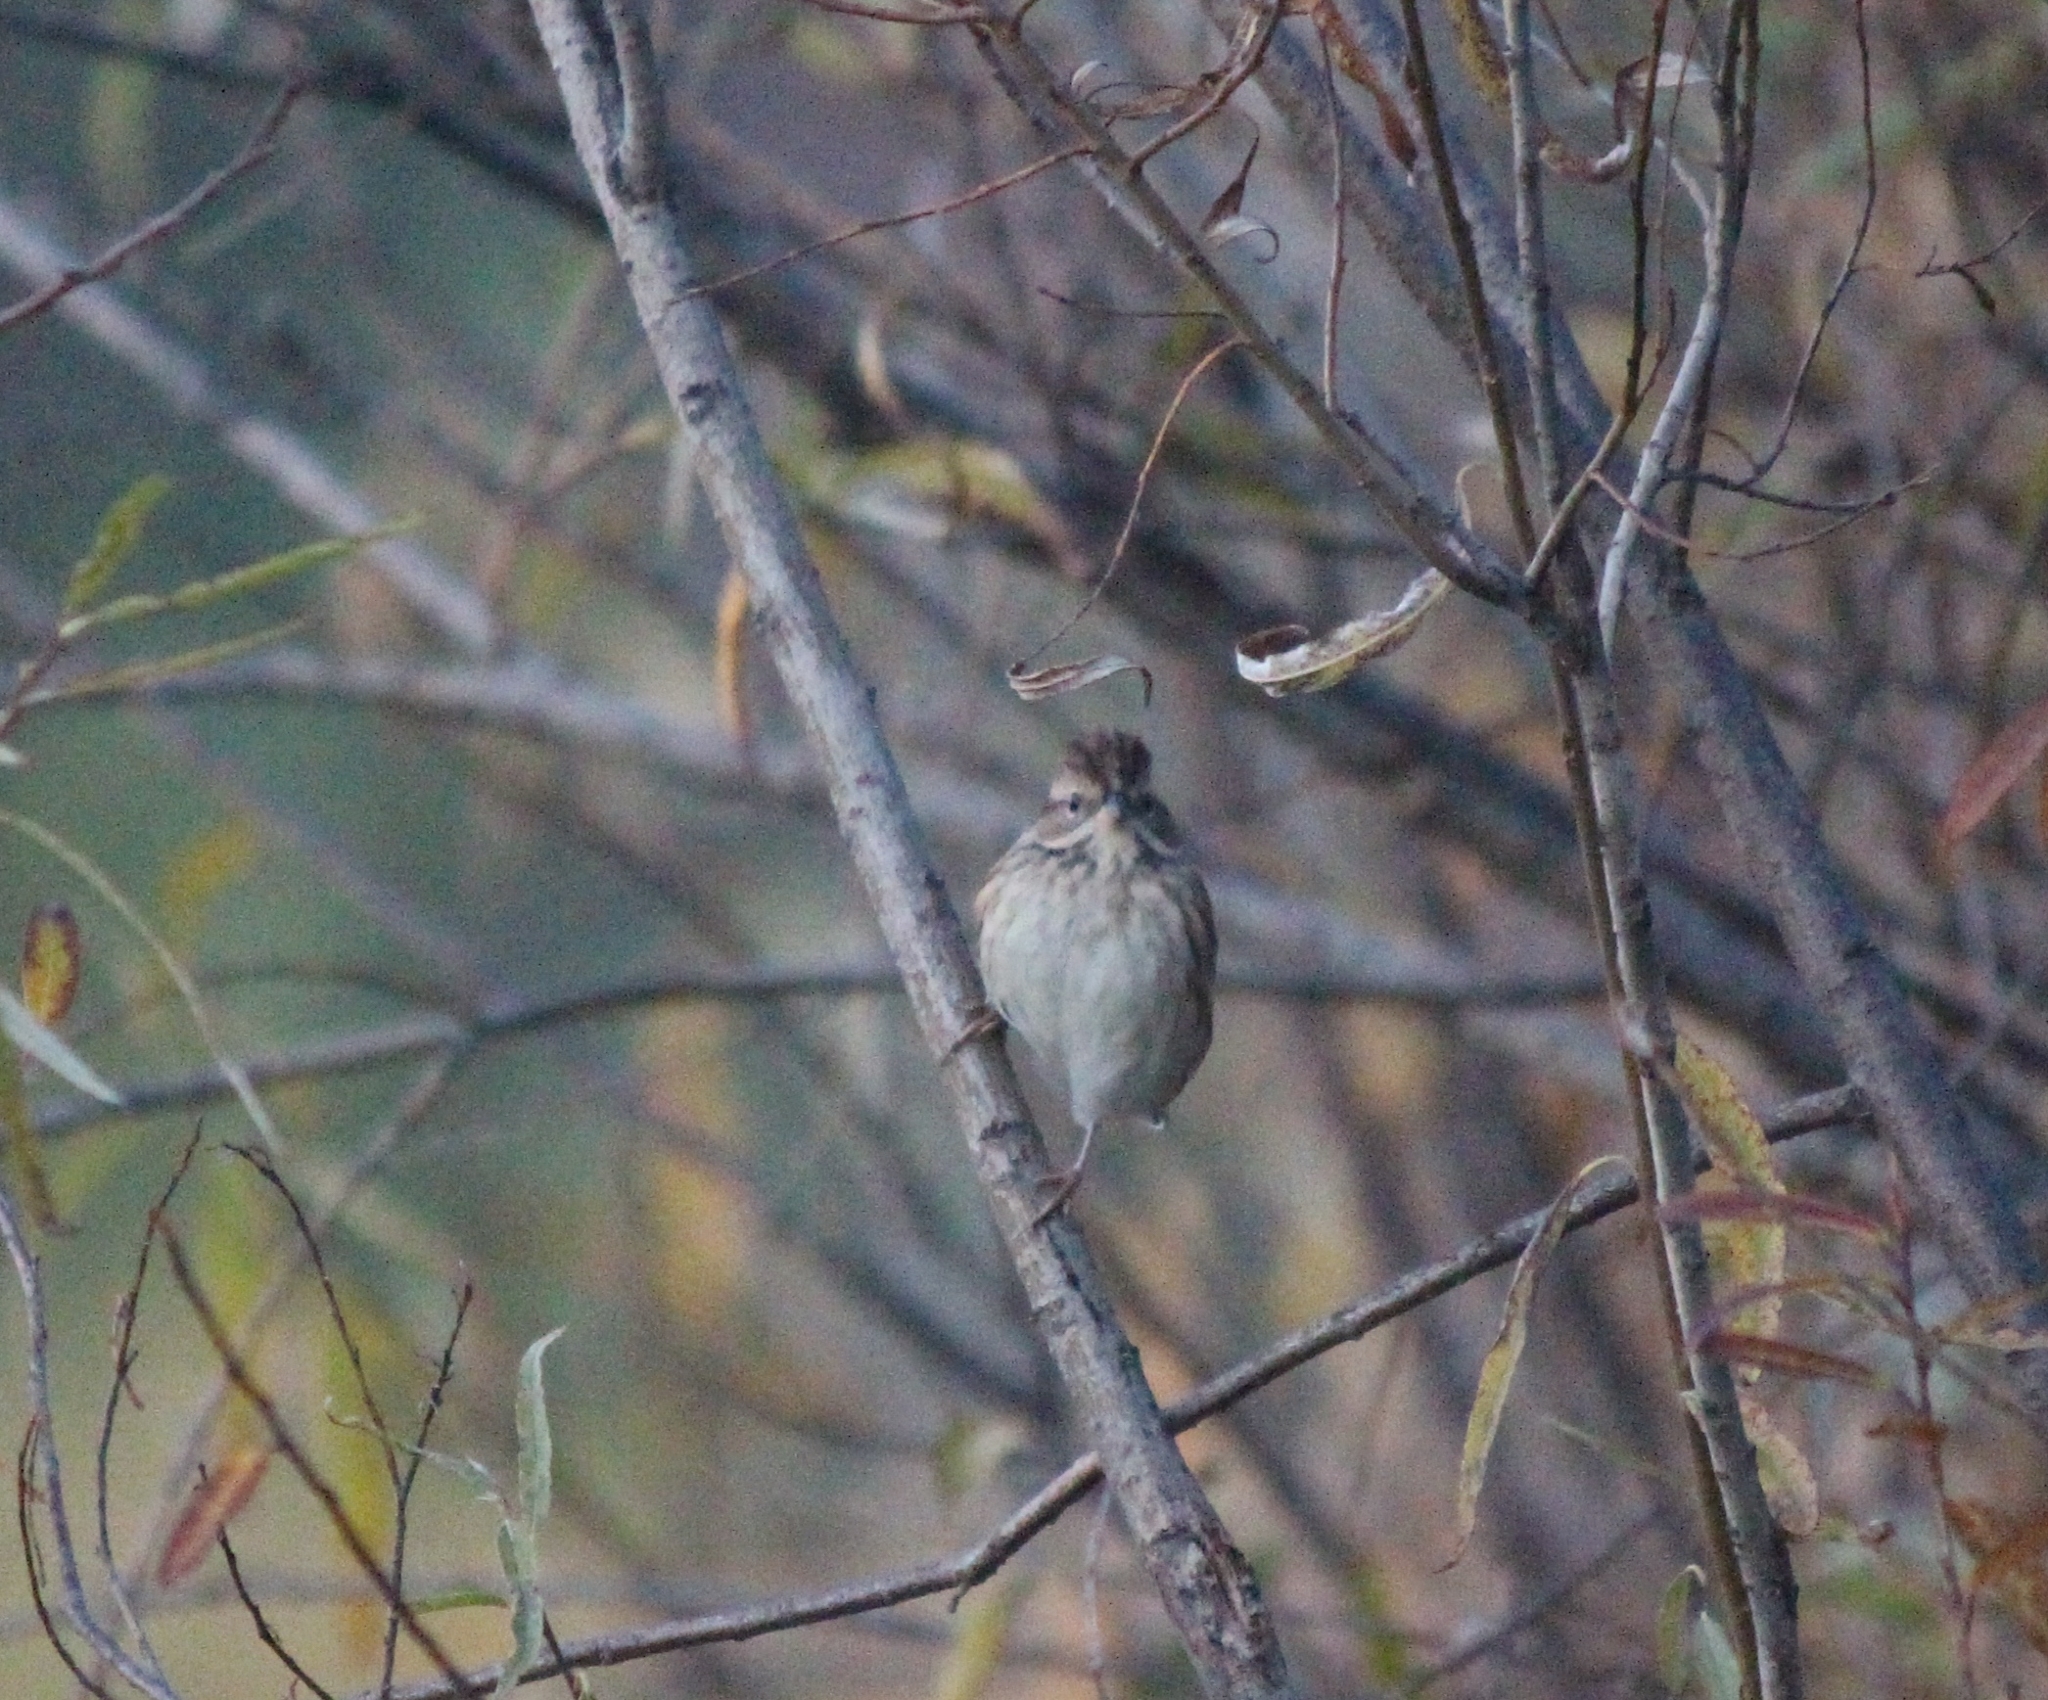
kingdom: Animalia
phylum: Chordata
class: Aves
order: Passeriformes
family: Emberizidae
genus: Emberiza
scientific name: Emberiza spodocephala
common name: Black-faced bunting
